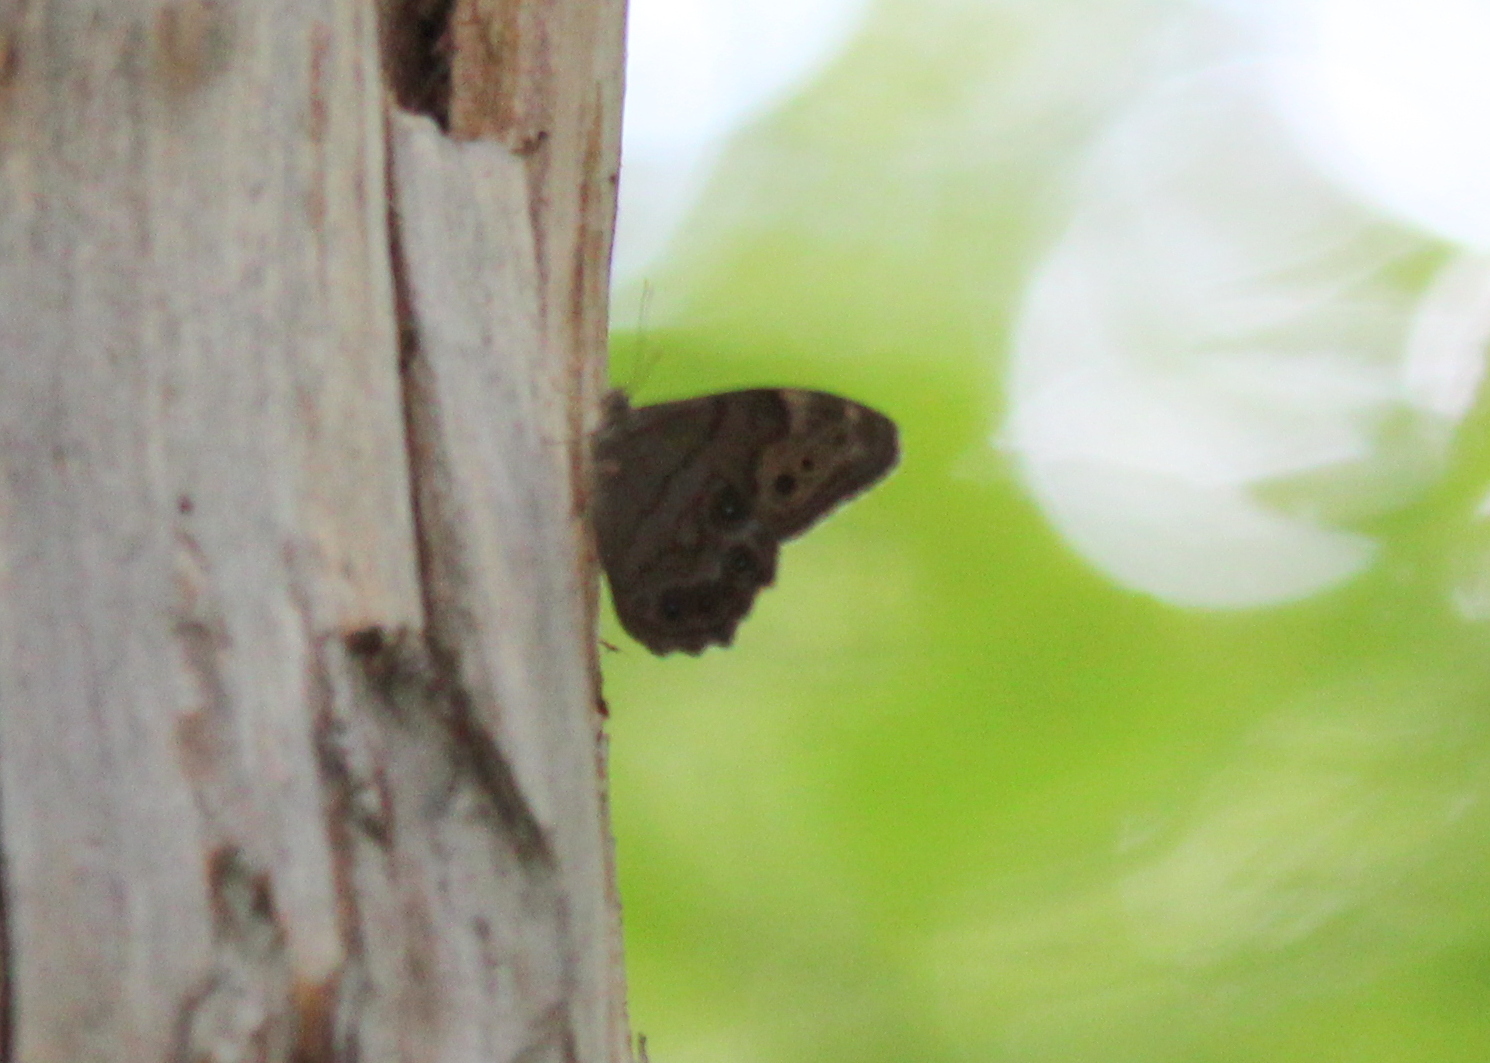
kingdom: Animalia
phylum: Arthropoda
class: Insecta
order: Lepidoptera
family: Nymphalidae
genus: Lethe
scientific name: Lethe anthedon
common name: Northern pearly-eye
